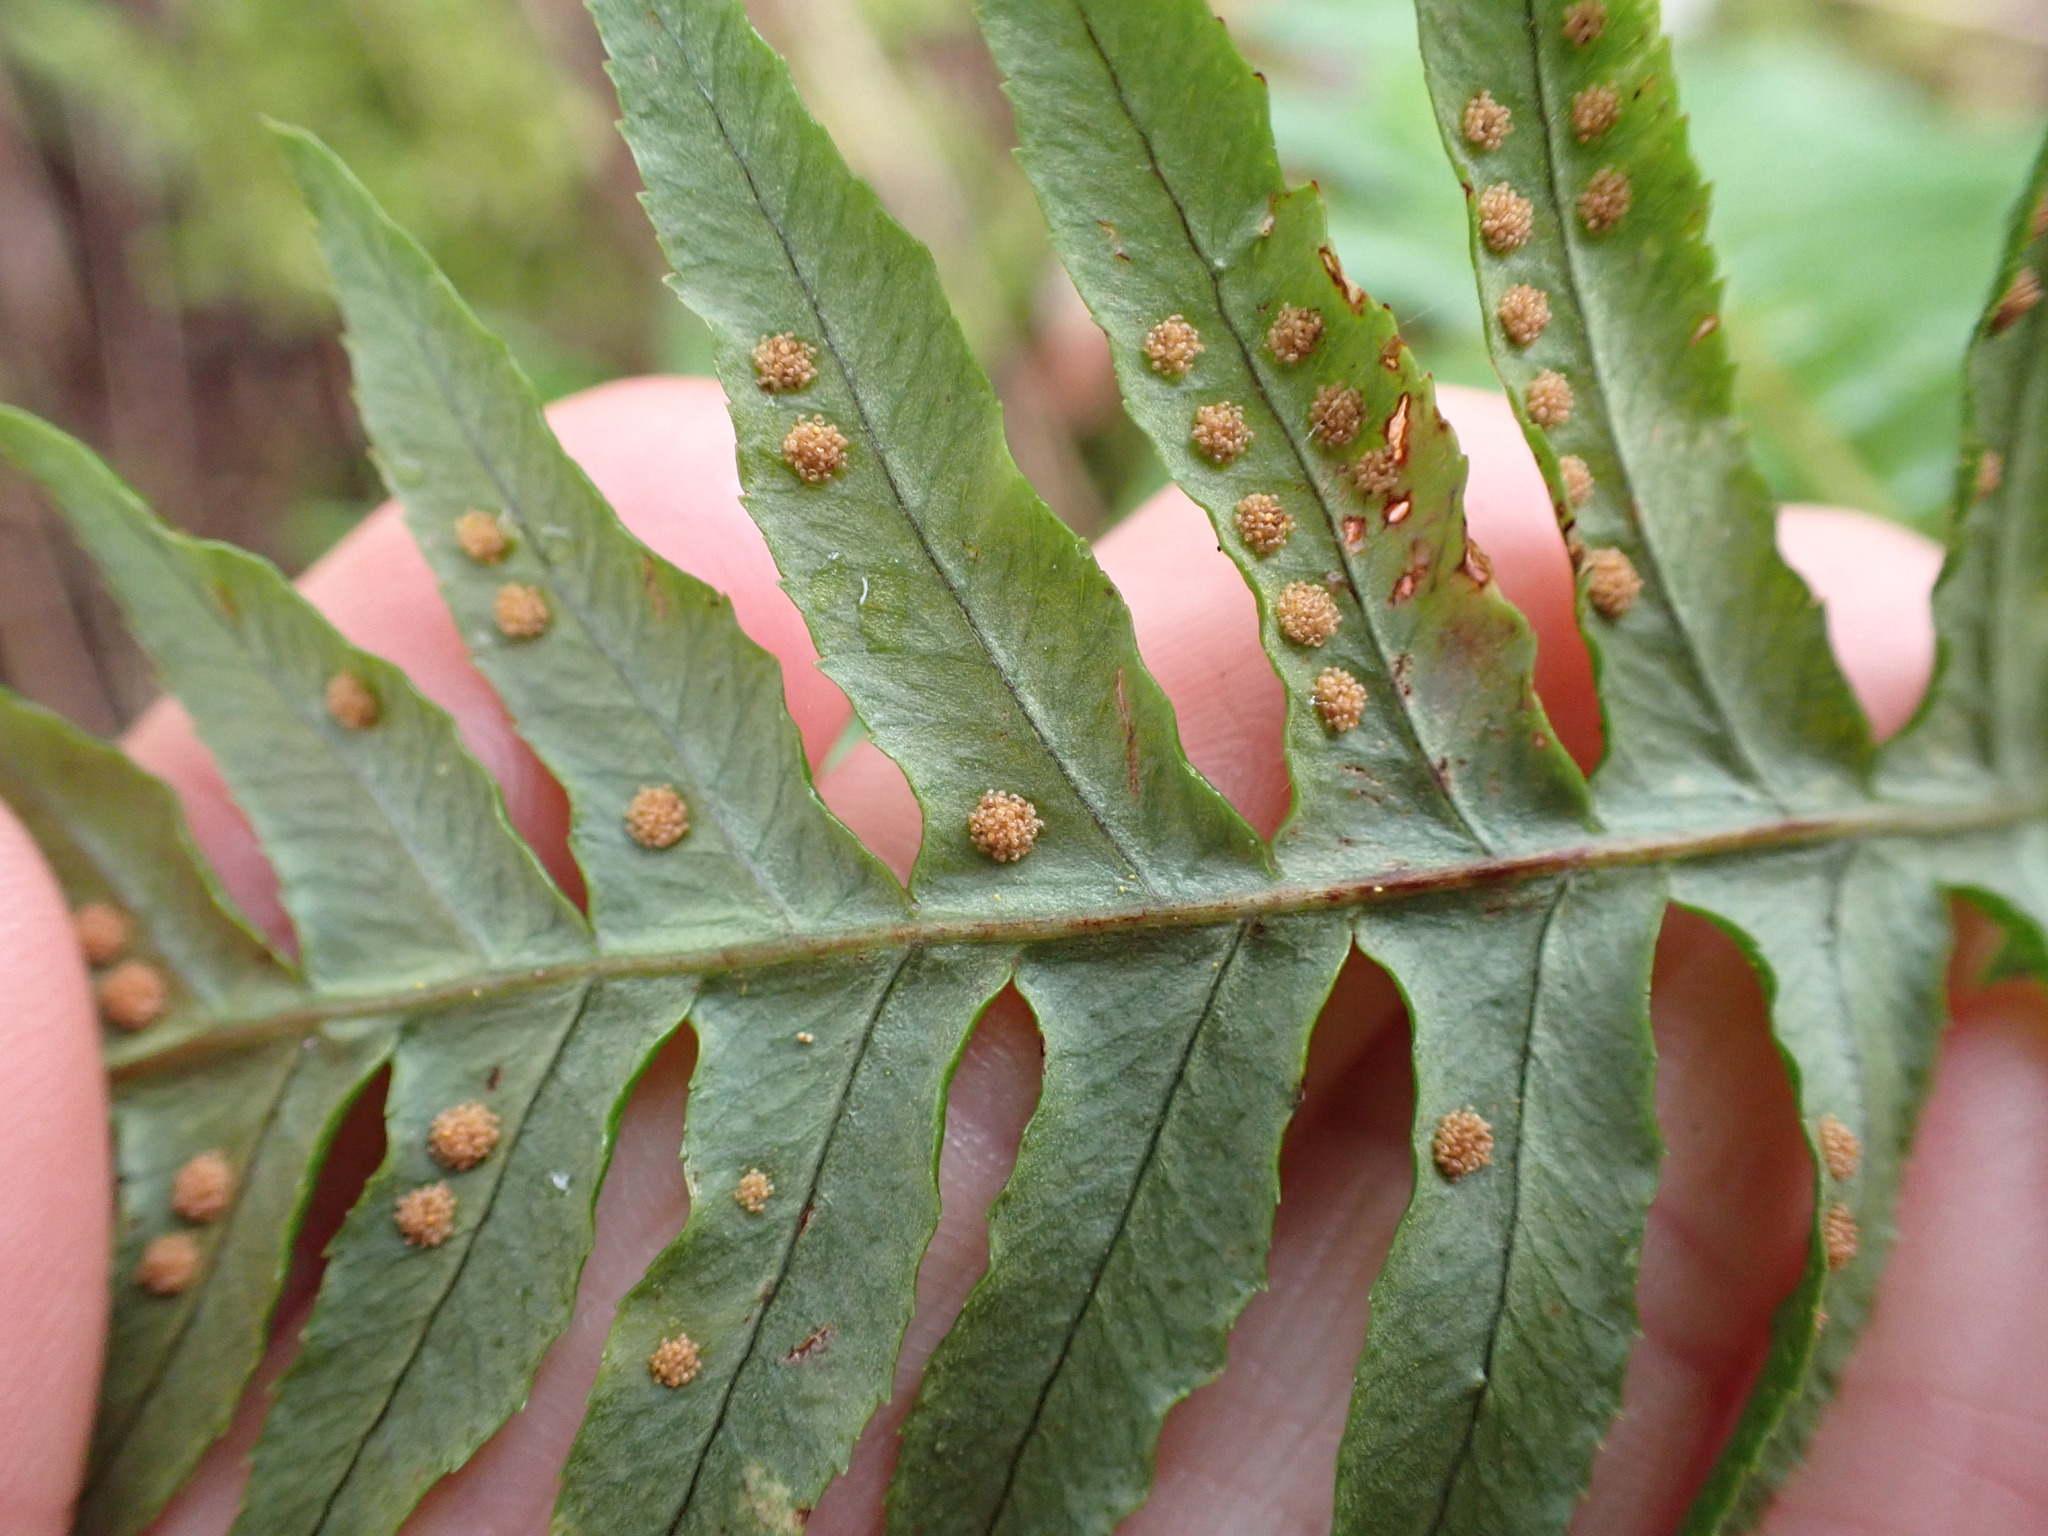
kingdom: Plantae
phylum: Tracheophyta
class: Polypodiopsida
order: Polypodiales
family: Polypodiaceae
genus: Polypodium
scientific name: Polypodium glycyrrhiza
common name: Licorice fern
